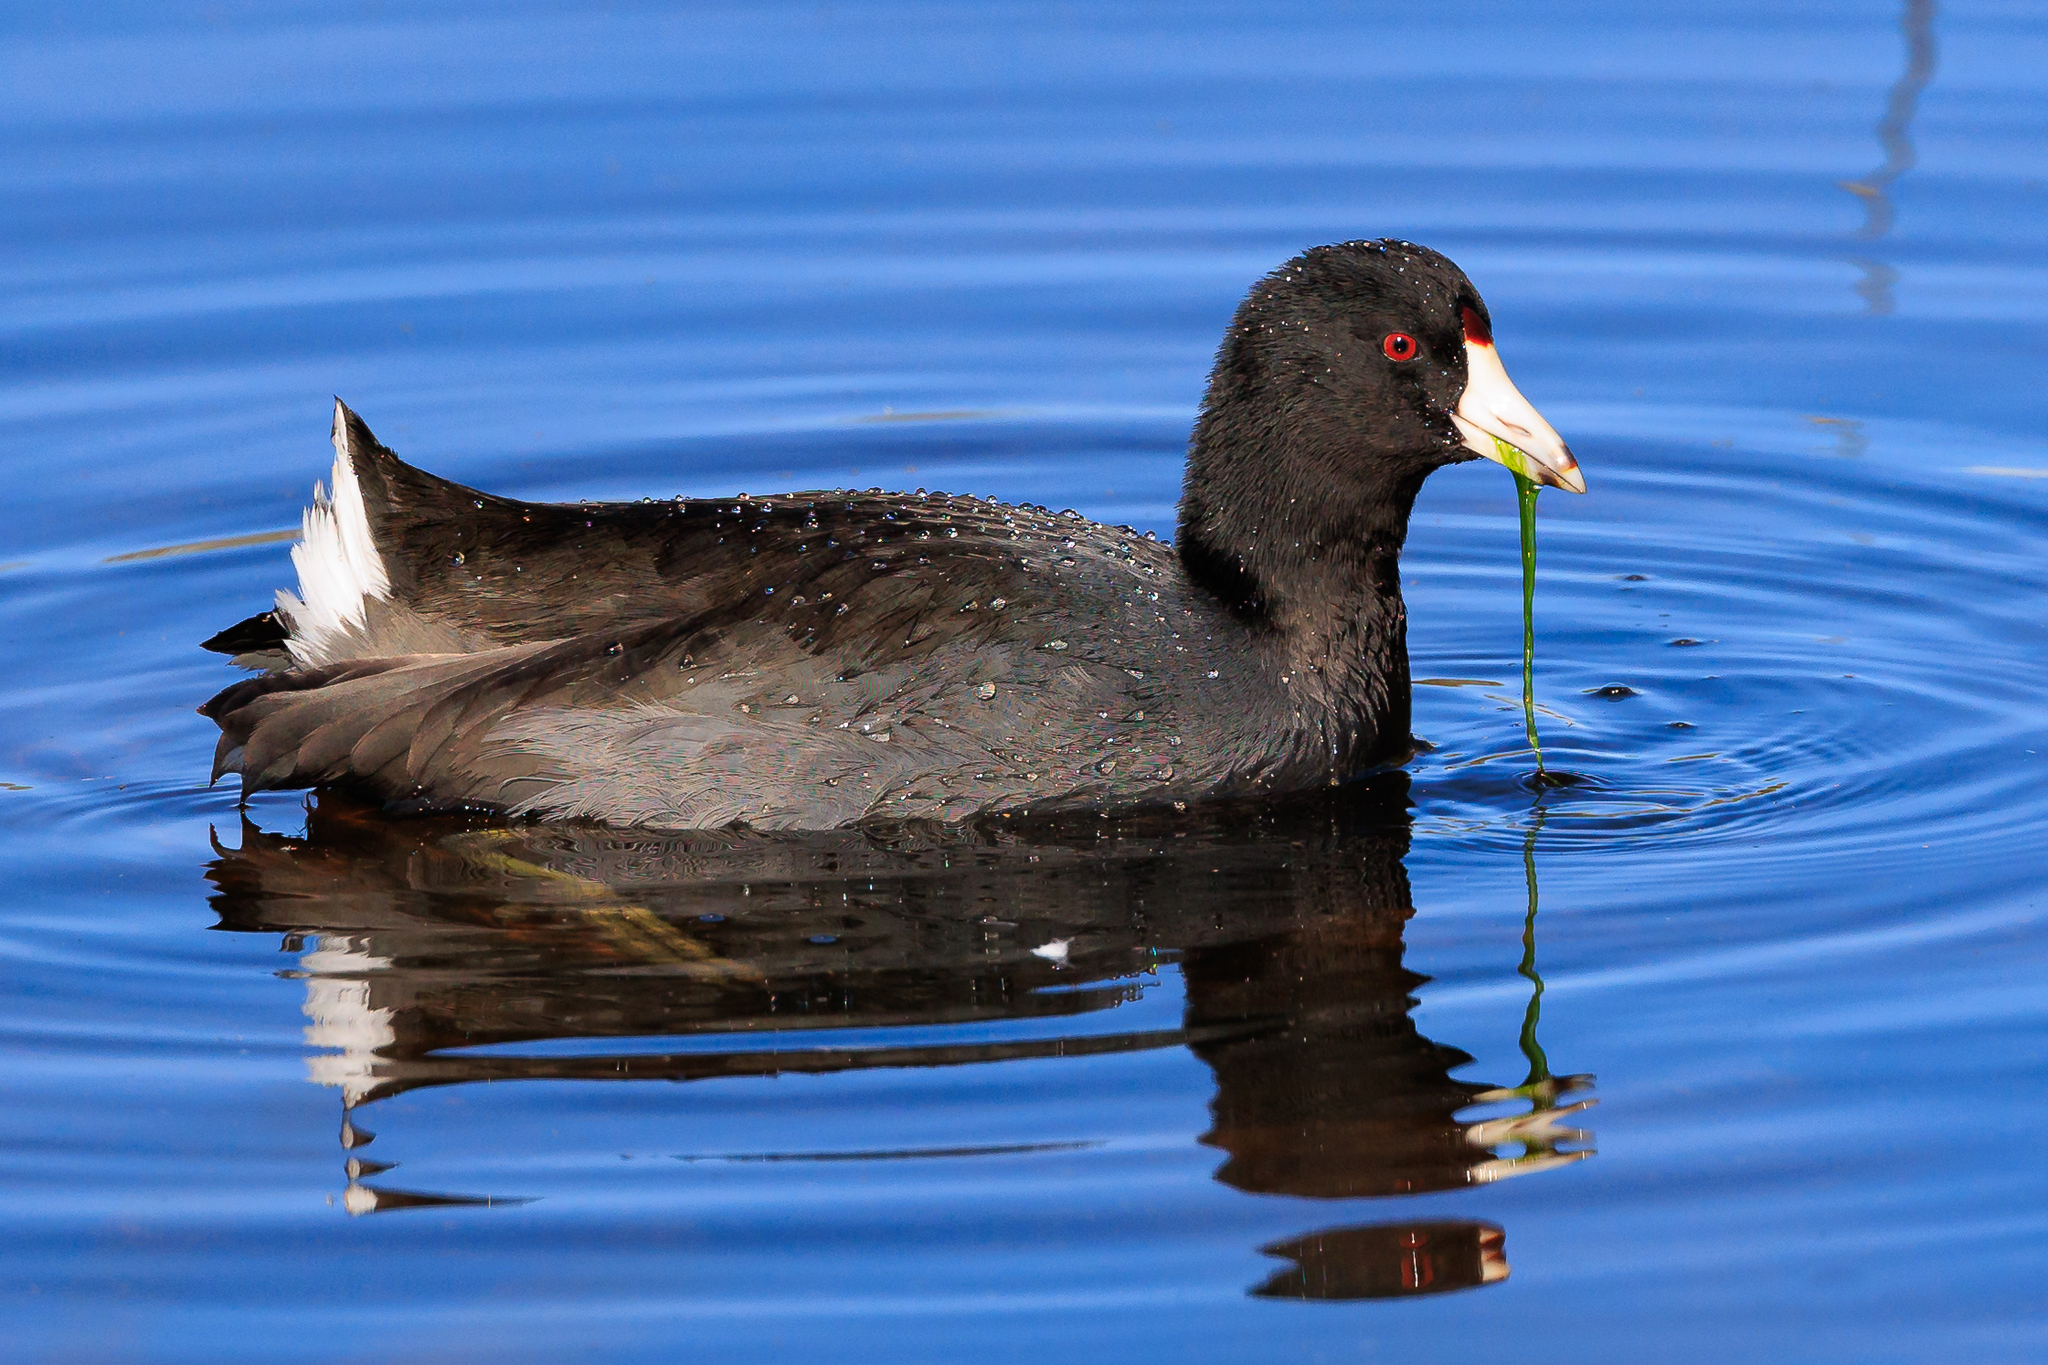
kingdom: Animalia
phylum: Chordata
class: Aves
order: Gruiformes
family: Rallidae
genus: Fulica
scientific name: Fulica americana
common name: American coot
